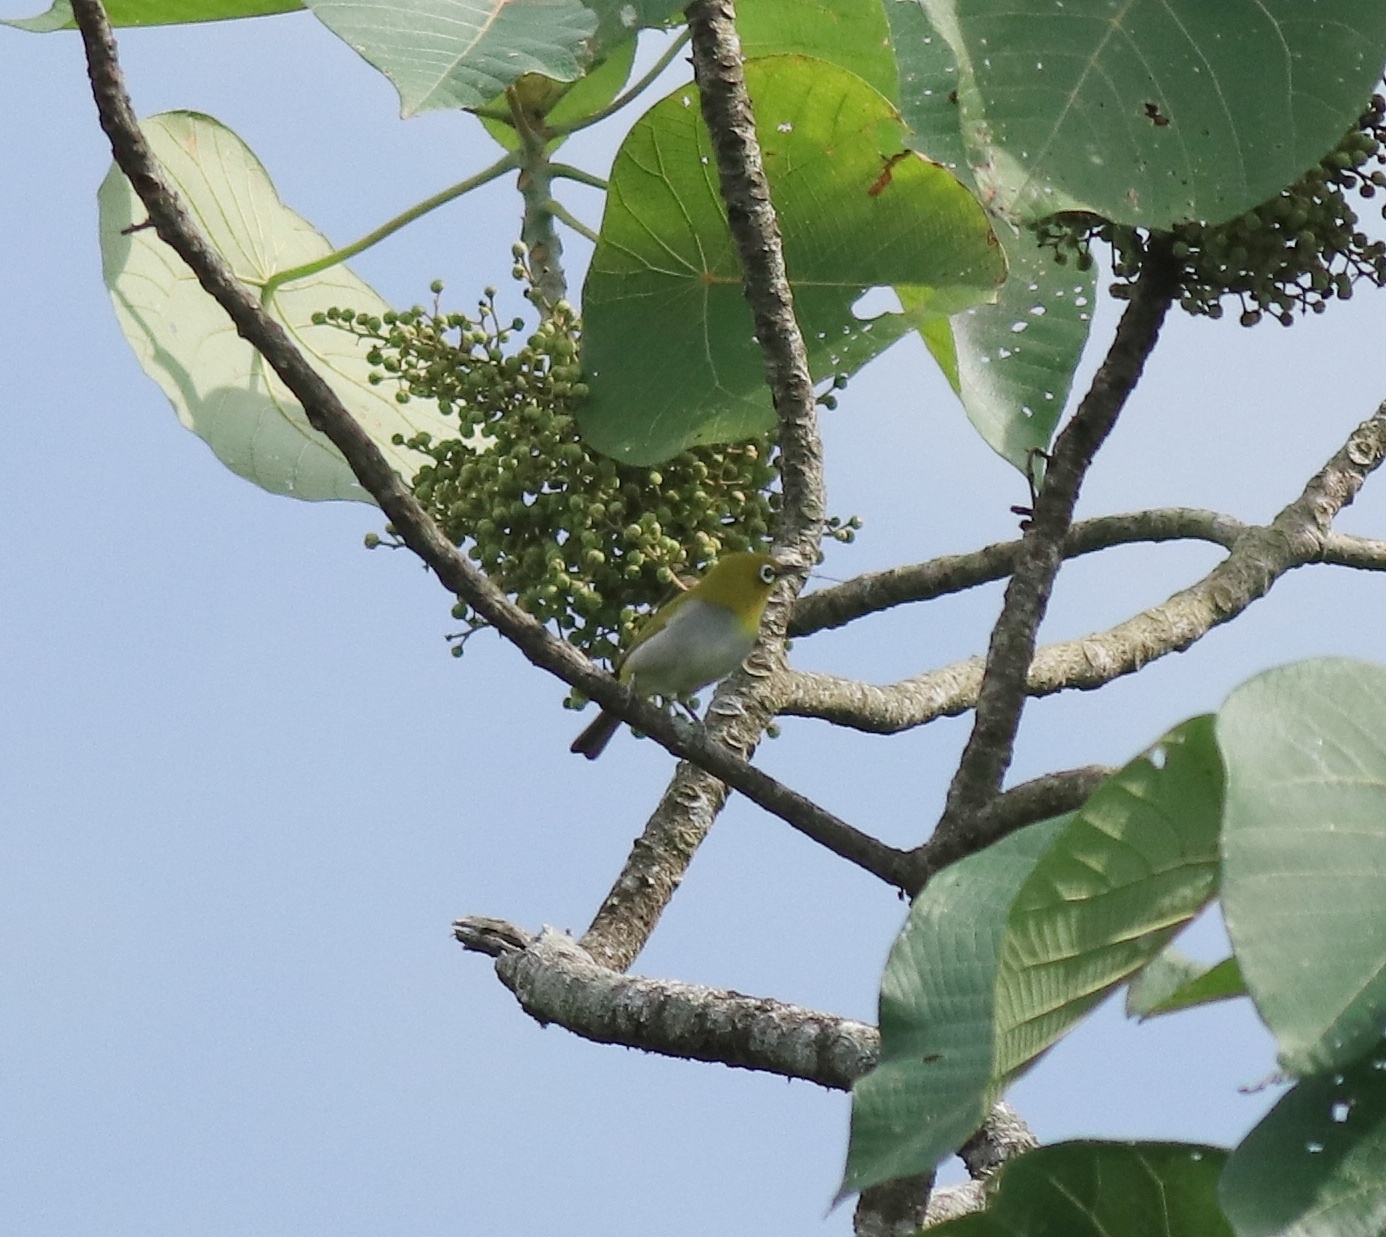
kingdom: Animalia
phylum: Chordata
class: Aves
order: Passeriformes
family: Zosteropidae
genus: Zosterops
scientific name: Zosterops palpebrosus
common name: Oriental white-eye
